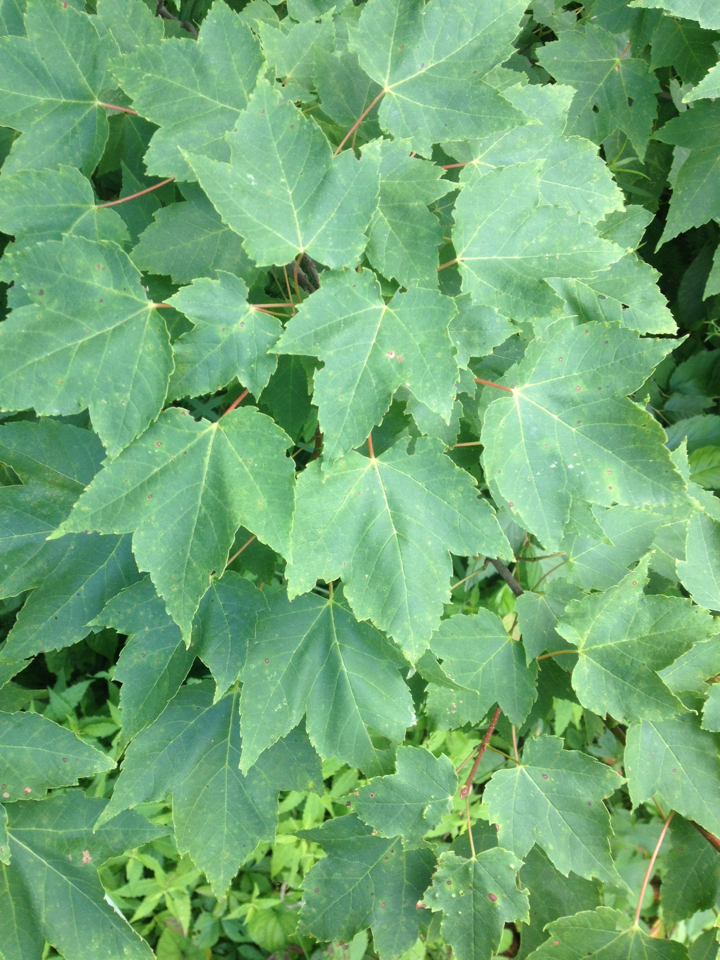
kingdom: Plantae
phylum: Tracheophyta
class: Magnoliopsida
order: Sapindales
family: Sapindaceae
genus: Acer
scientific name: Acer rubrum
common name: Red maple
